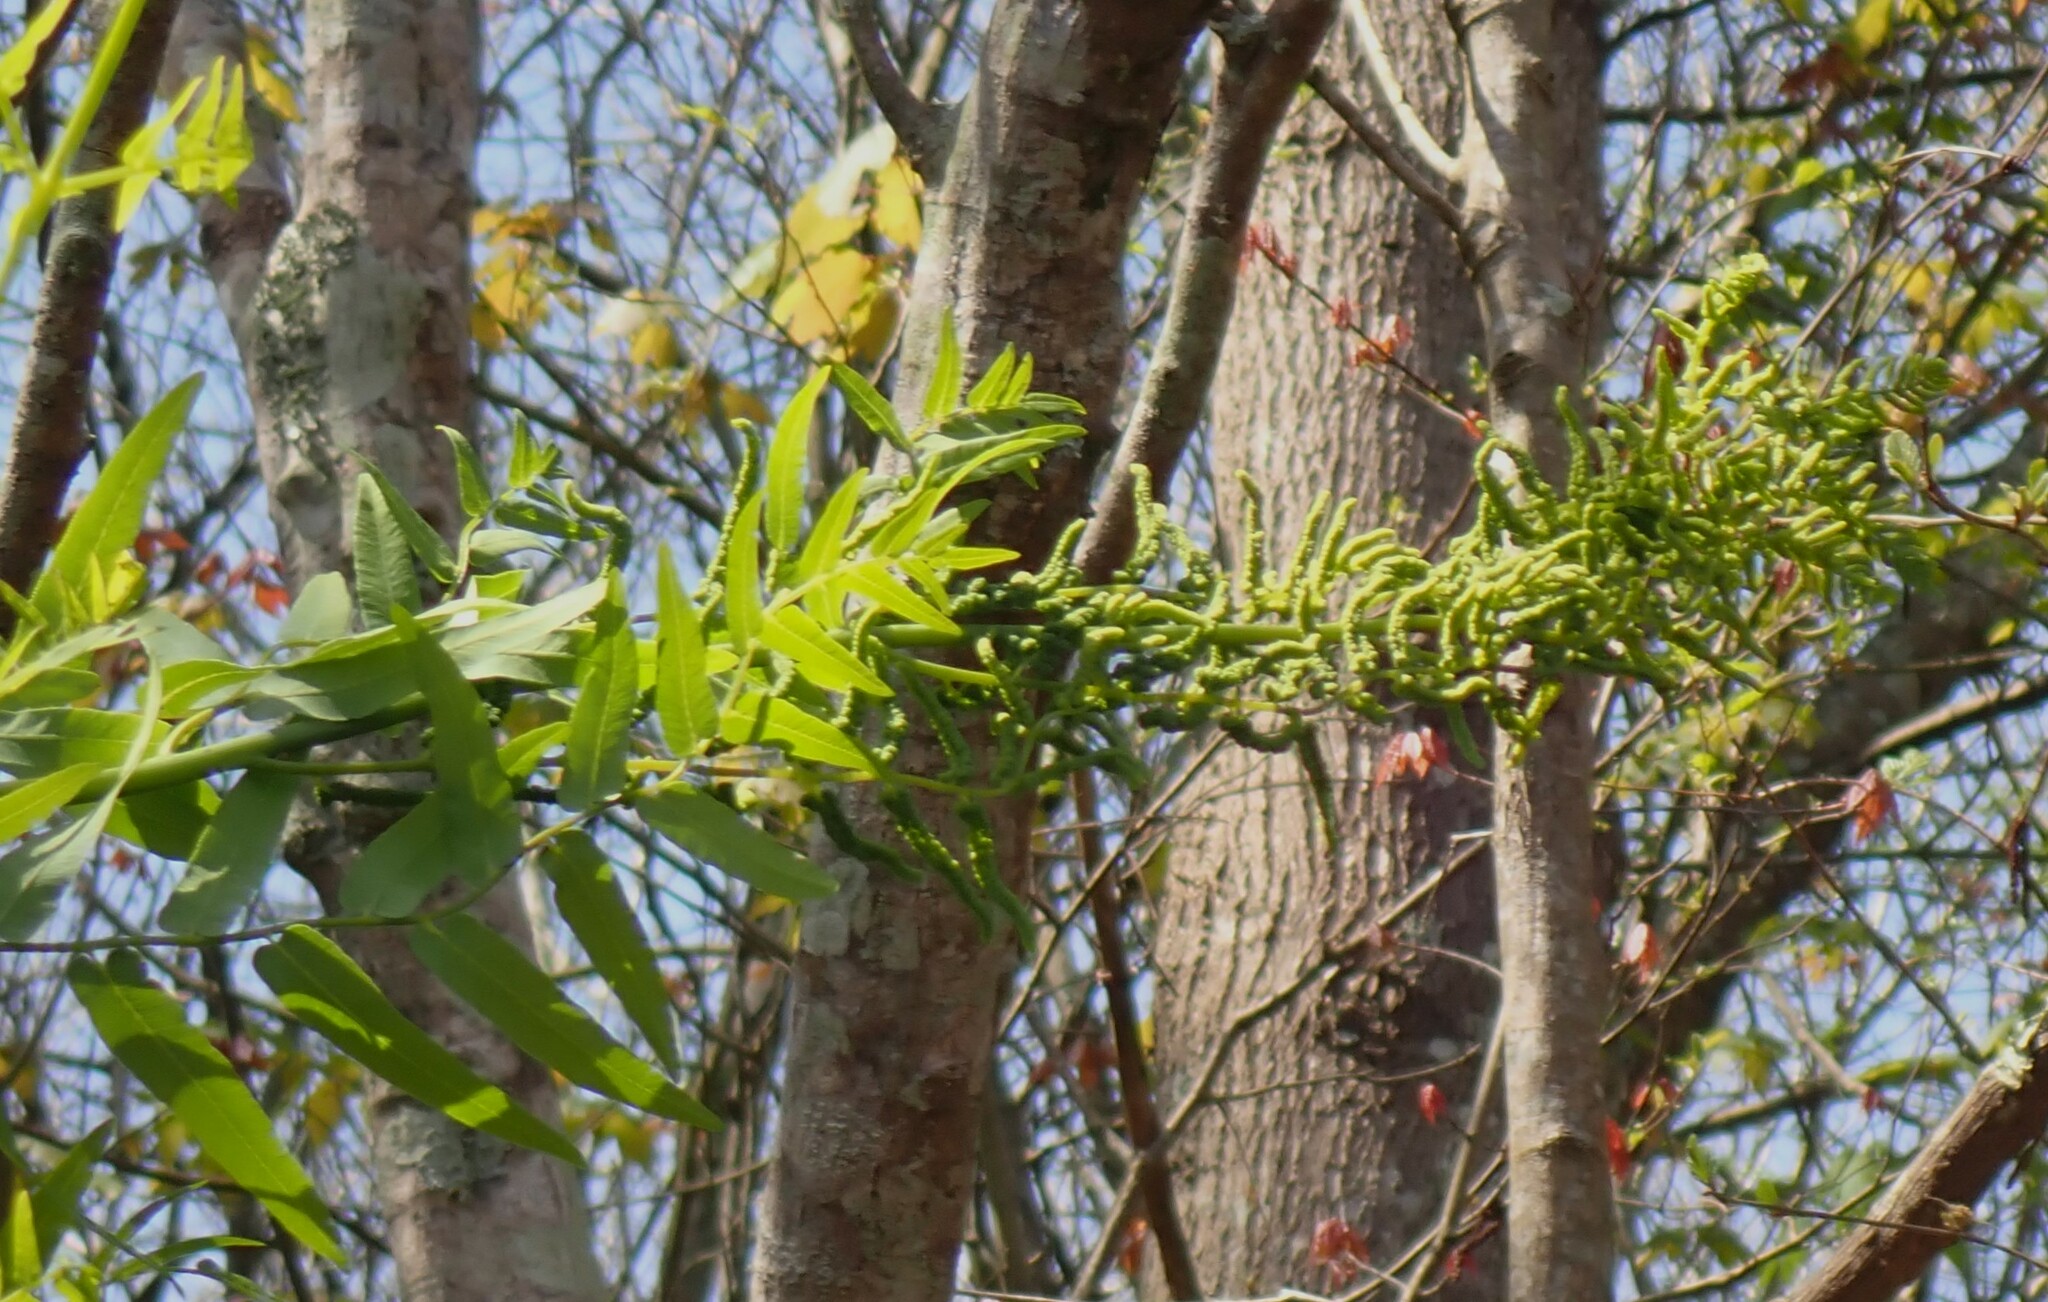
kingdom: Plantae
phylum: Tracheophyta
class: Polypodiopsida
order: Osmundales
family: Osmundaceae
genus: Osmunda
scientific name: Osmunda spectabilis
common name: American royal fern
